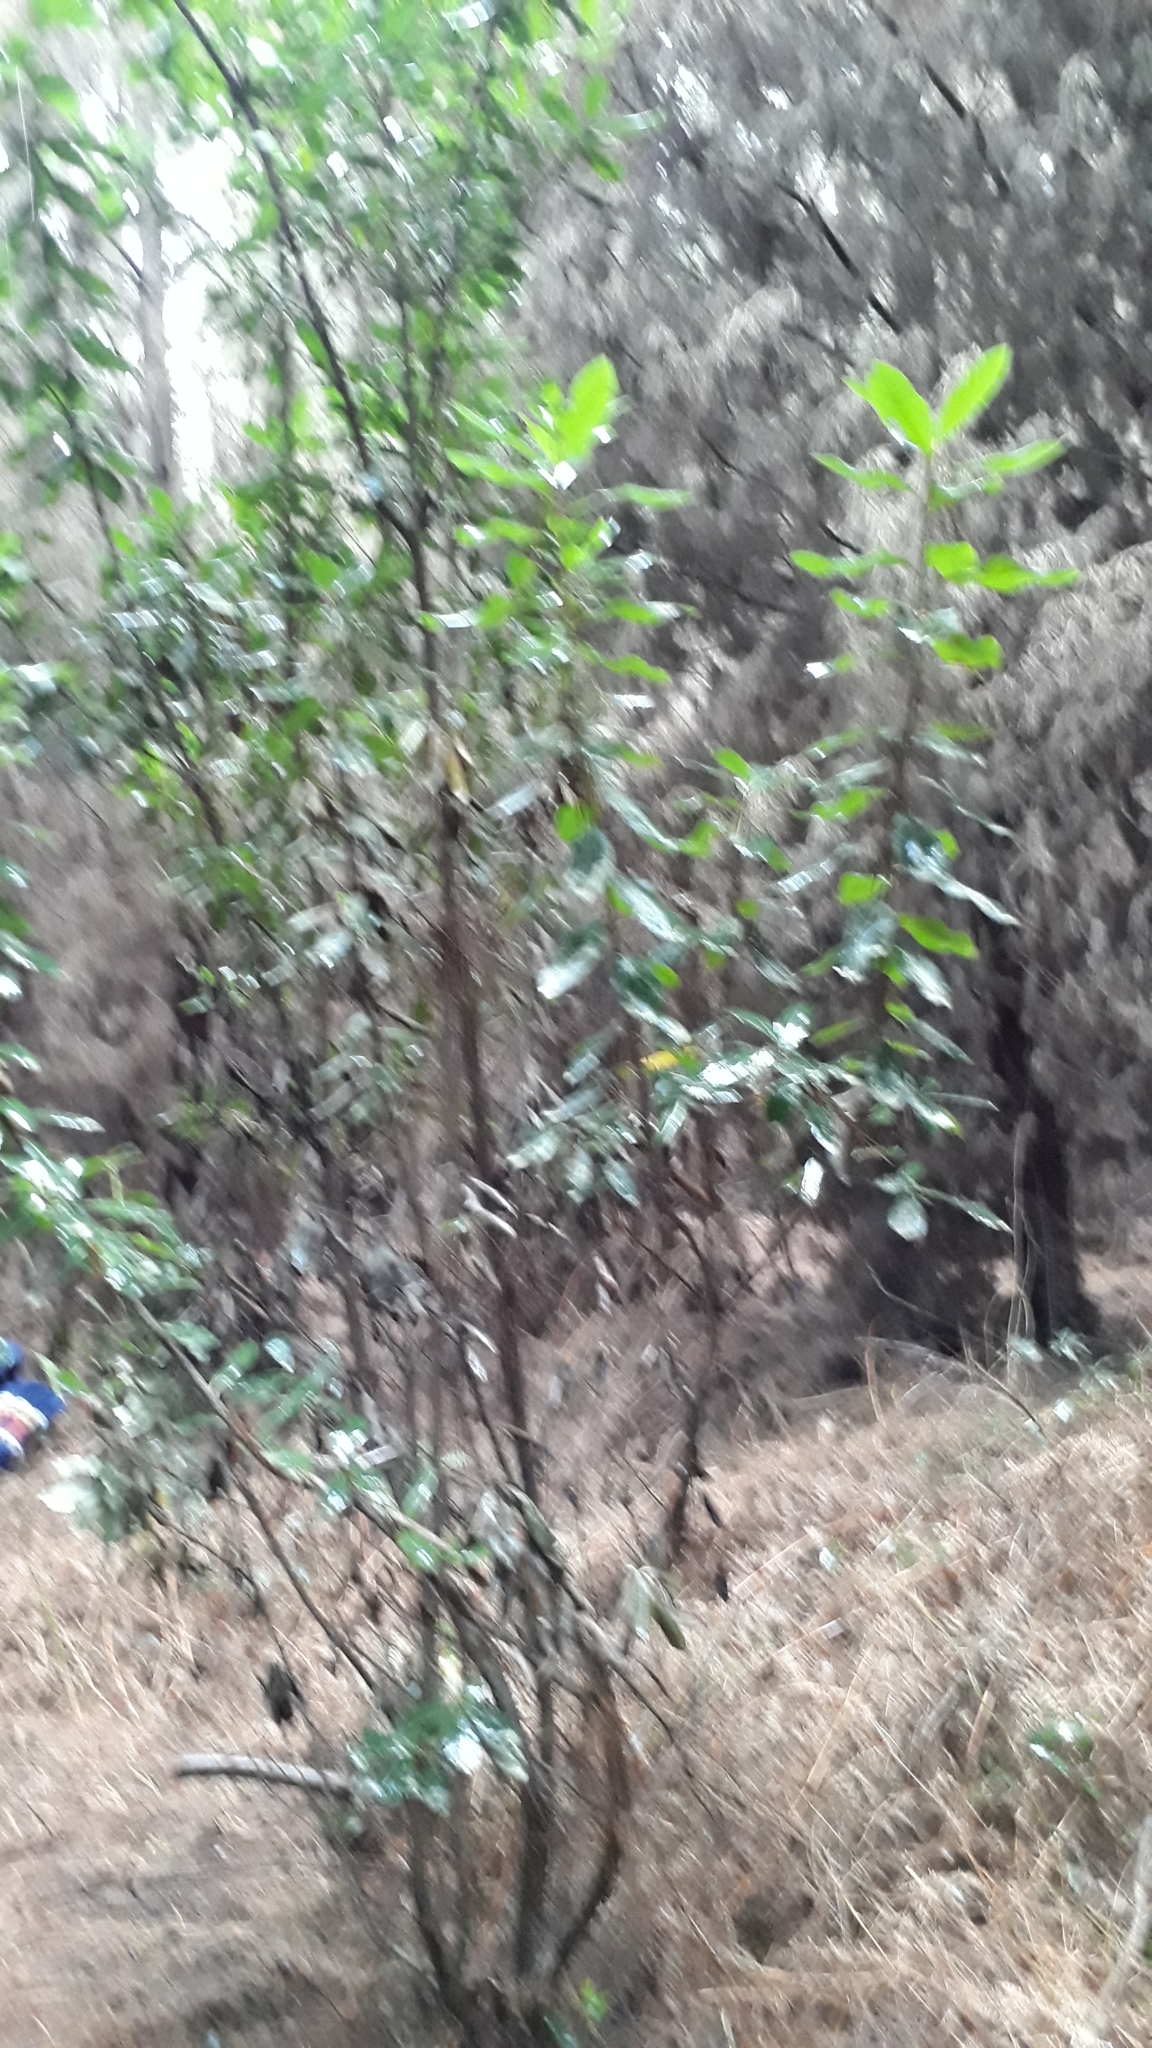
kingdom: Plantae
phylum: Tracheophyta
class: Magnoliopsida
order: Ericales
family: Ericaceae
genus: Arbutus
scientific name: Arbutus unedo
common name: Strawberry-tree
